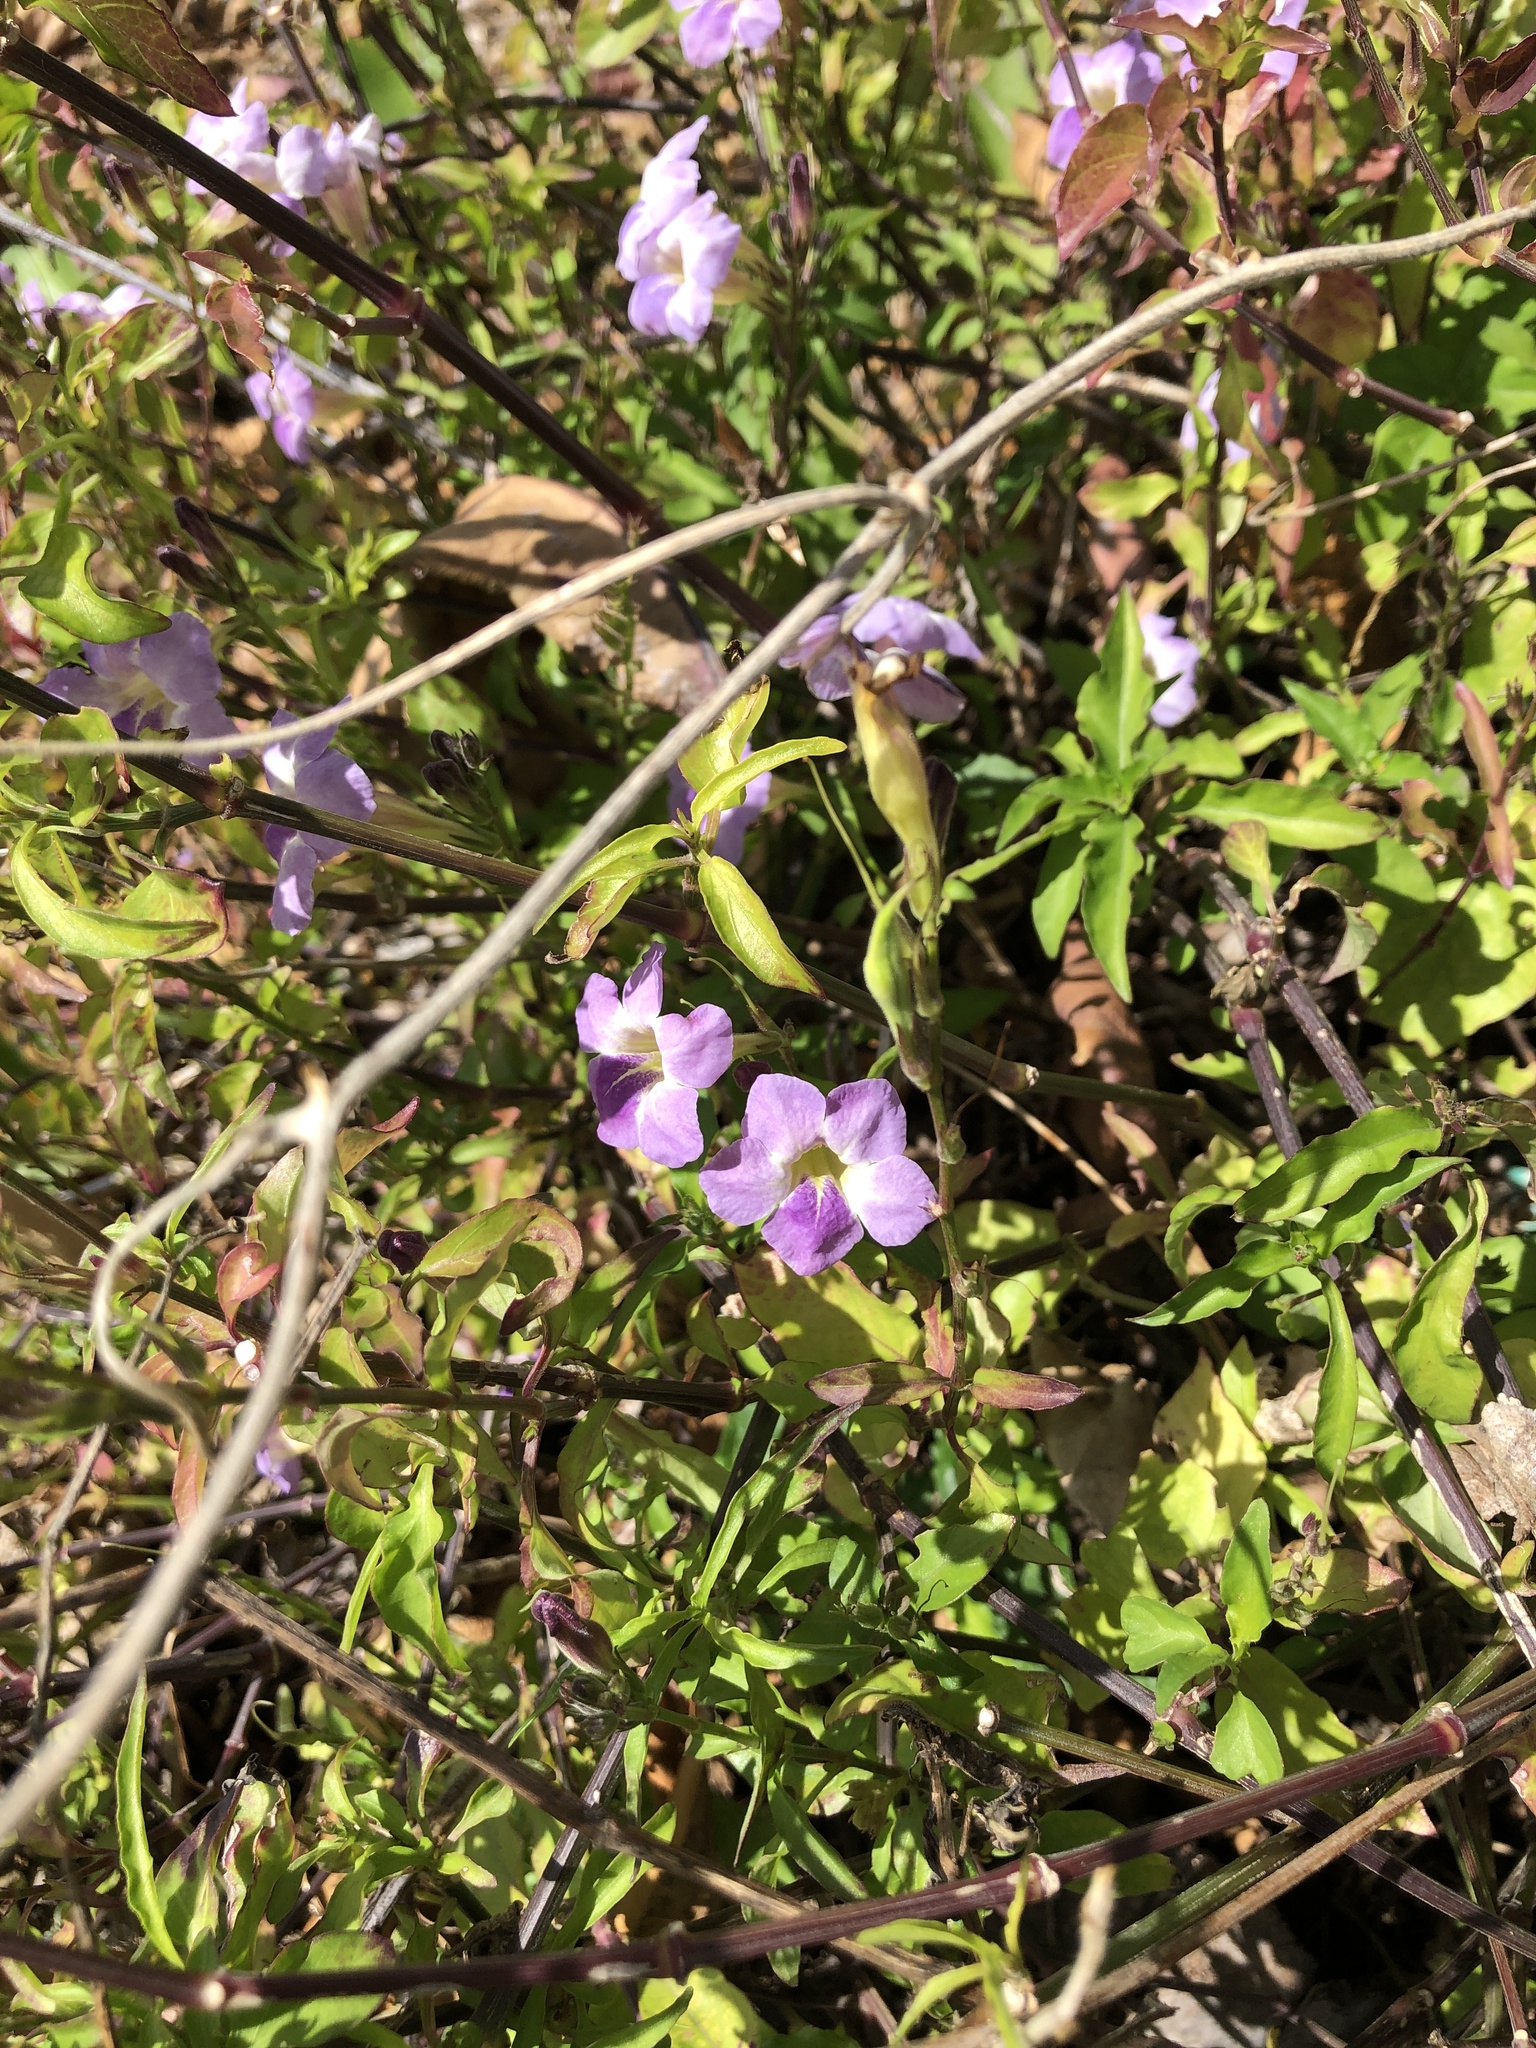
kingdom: Plantae
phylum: Tracheophyta
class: Magnoliopsida
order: Lamiales
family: Acanthaceae
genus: Asystasia
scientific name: Asystasia gangetica
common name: Chinese violet
